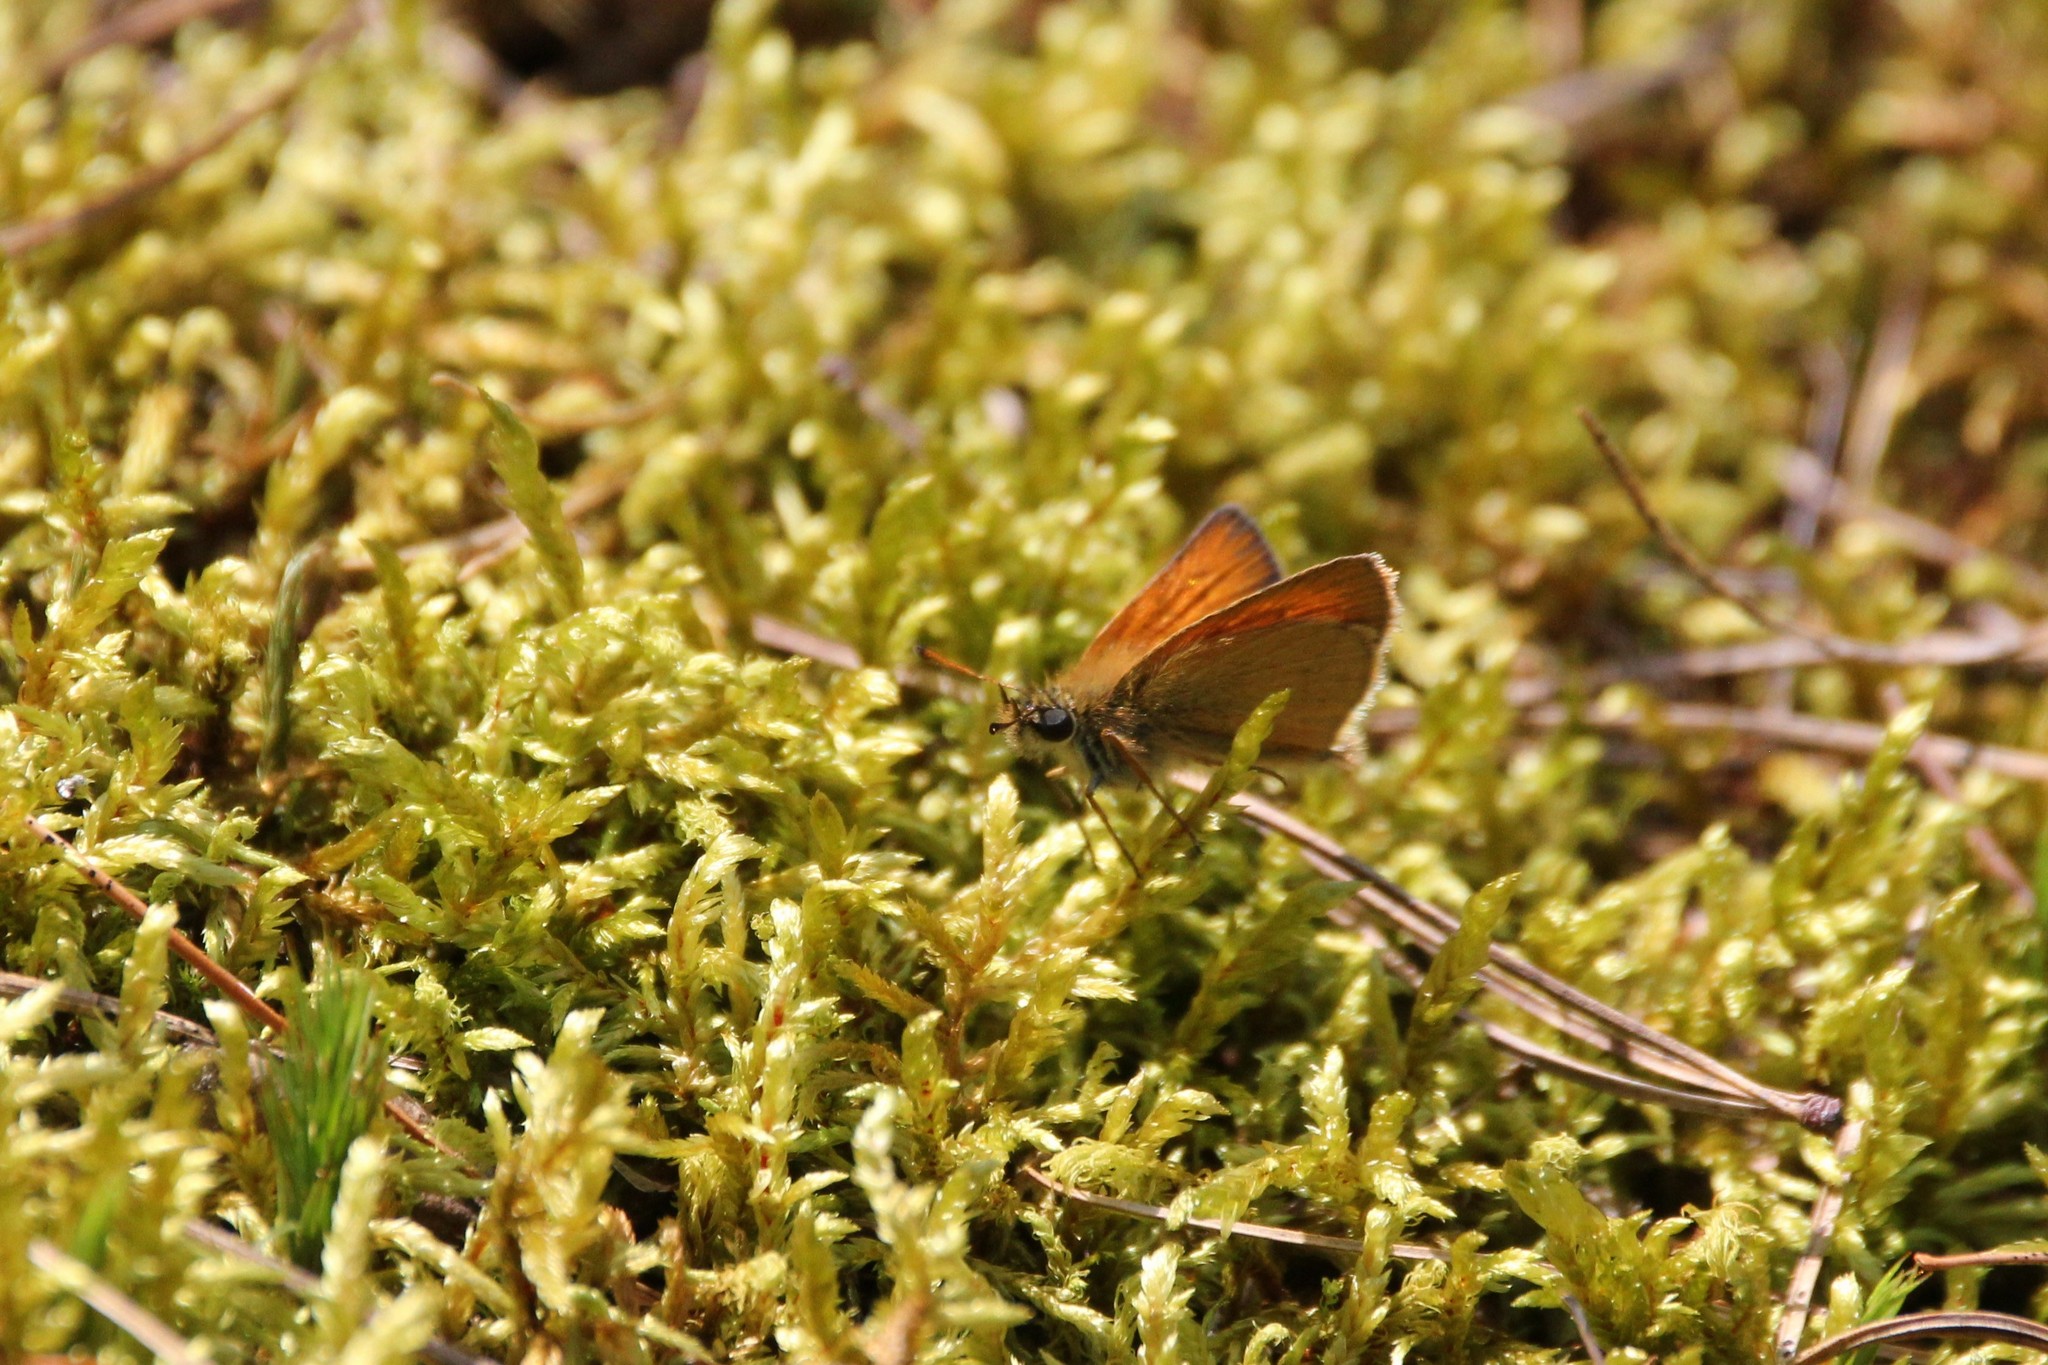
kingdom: Animalia
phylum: Arthropoda
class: Insecta
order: Lepidoptera
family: Hesperiidae
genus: Thymelicus
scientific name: Thymelicus lineola
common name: Essex skipper
